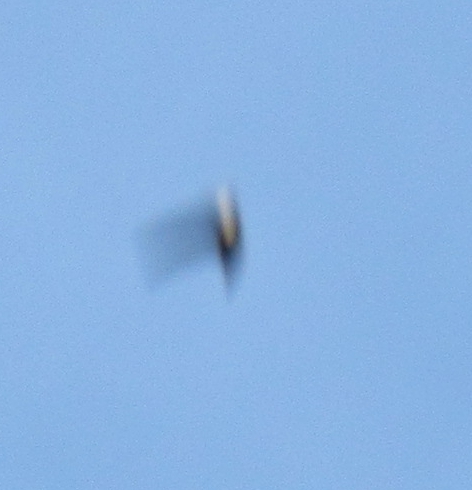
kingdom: Animalia
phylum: Chordata
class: Aves
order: Apodiformes
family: Apodidae
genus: Aeronautes
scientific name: Aeronautes saxatalis
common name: White-throated swift
